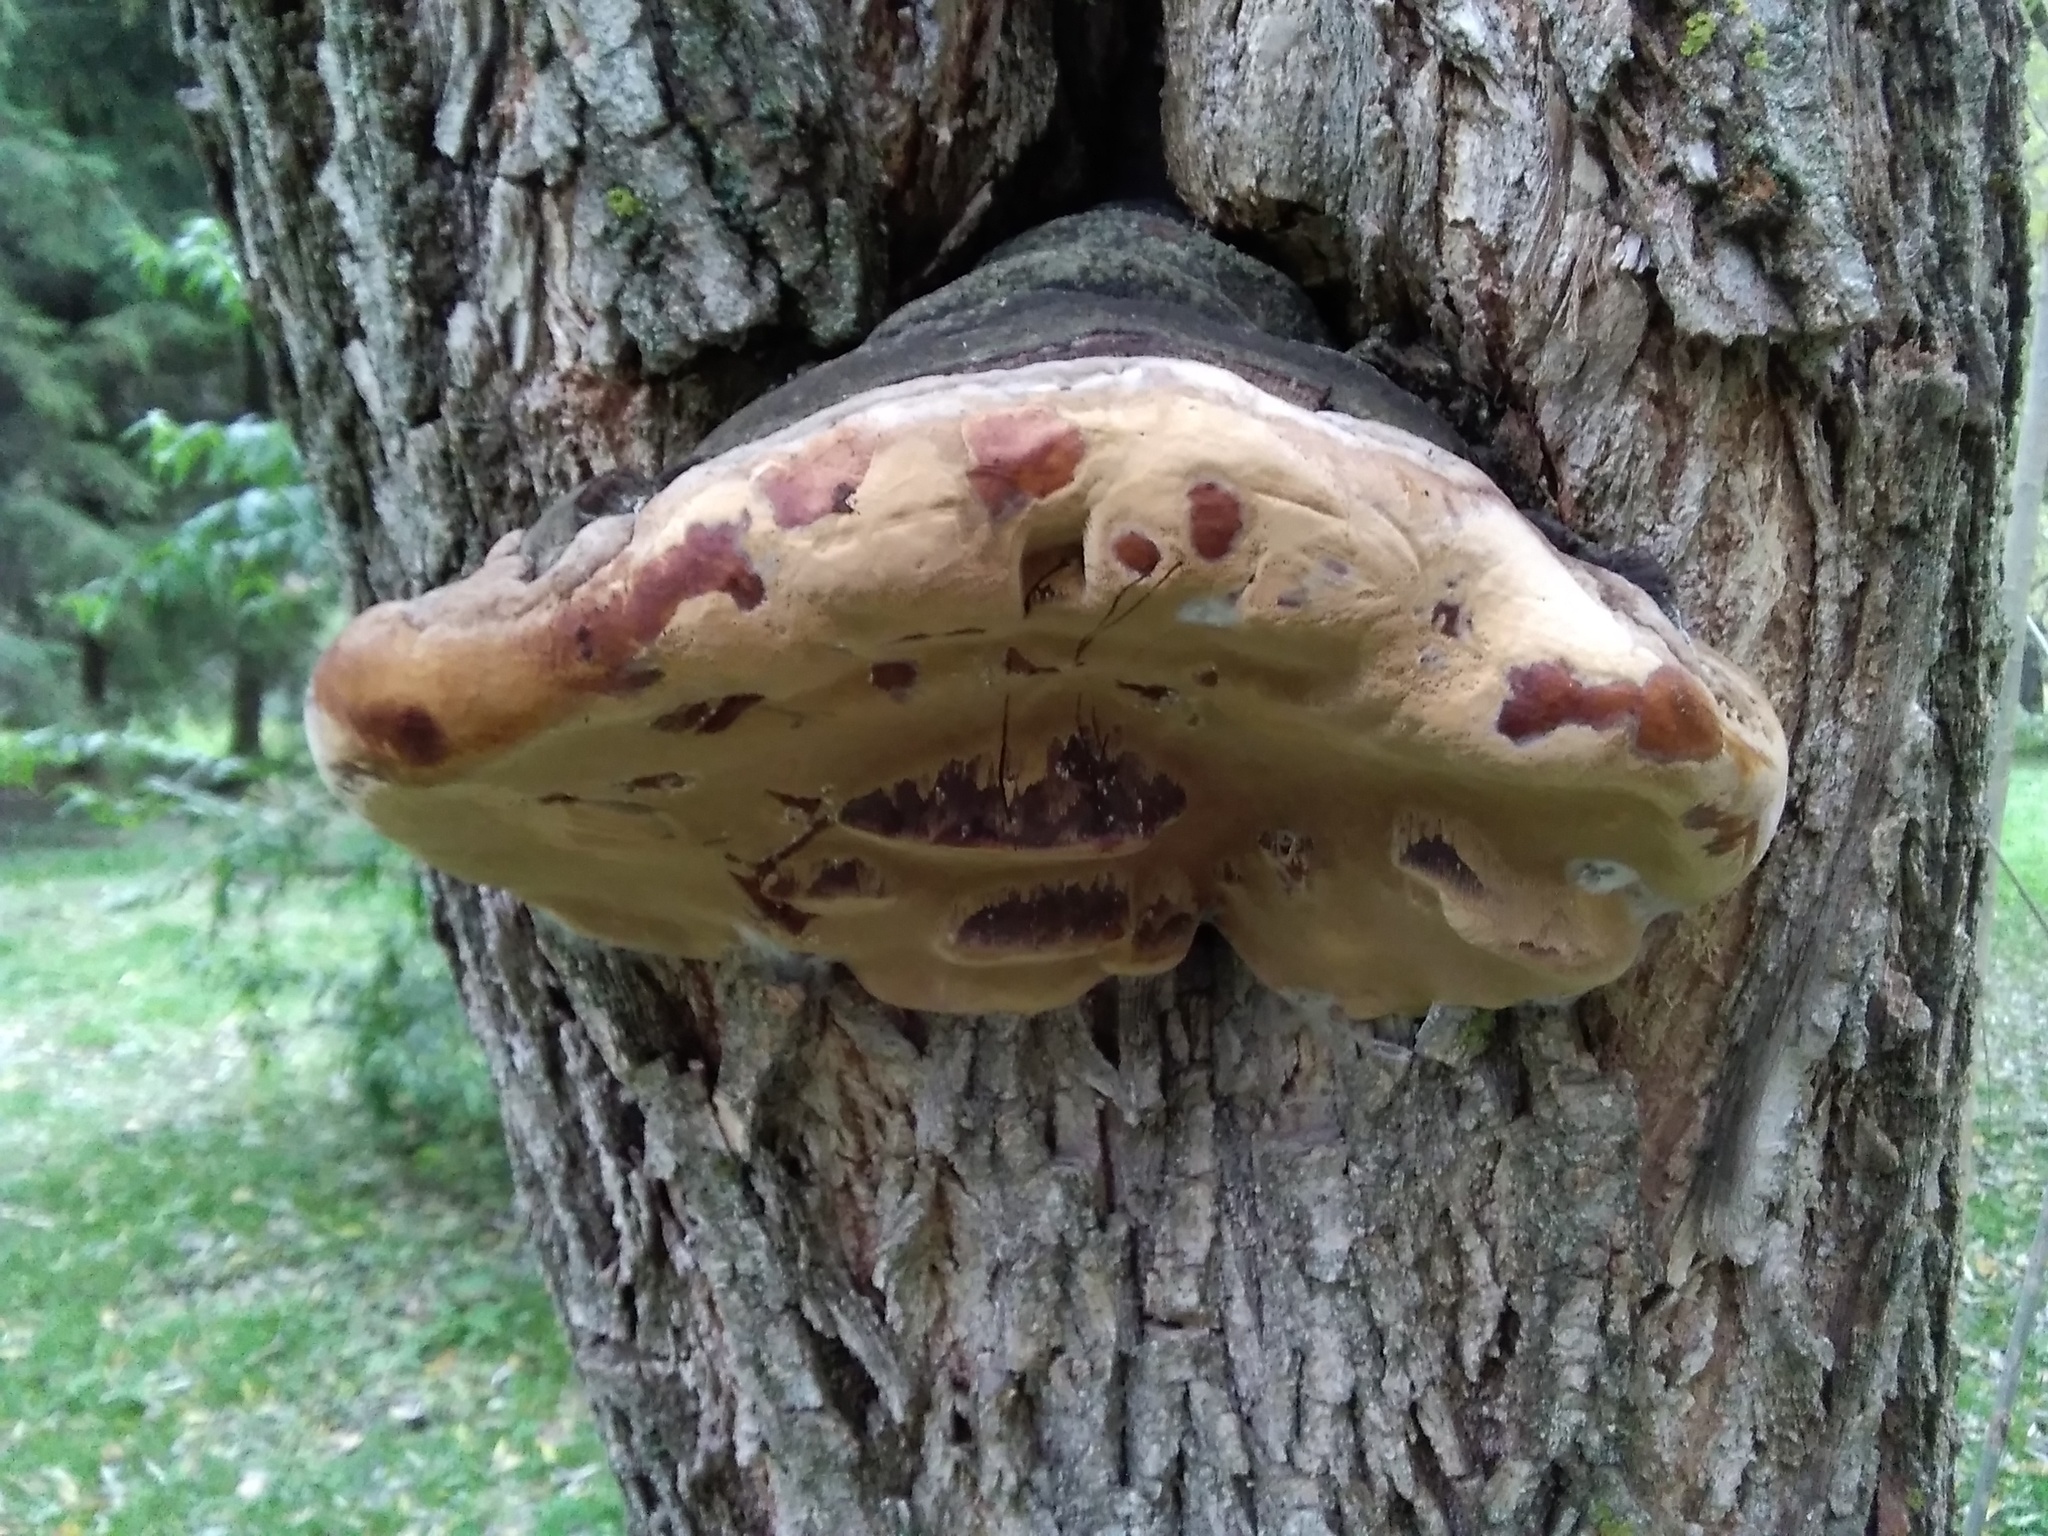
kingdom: Fungi
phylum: Basidiomycota
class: Agaricomycetes
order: Hymenochaetales
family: Hymenochaetaceae
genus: Phellinus
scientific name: Phellinus igniarius
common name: Willow bracket
